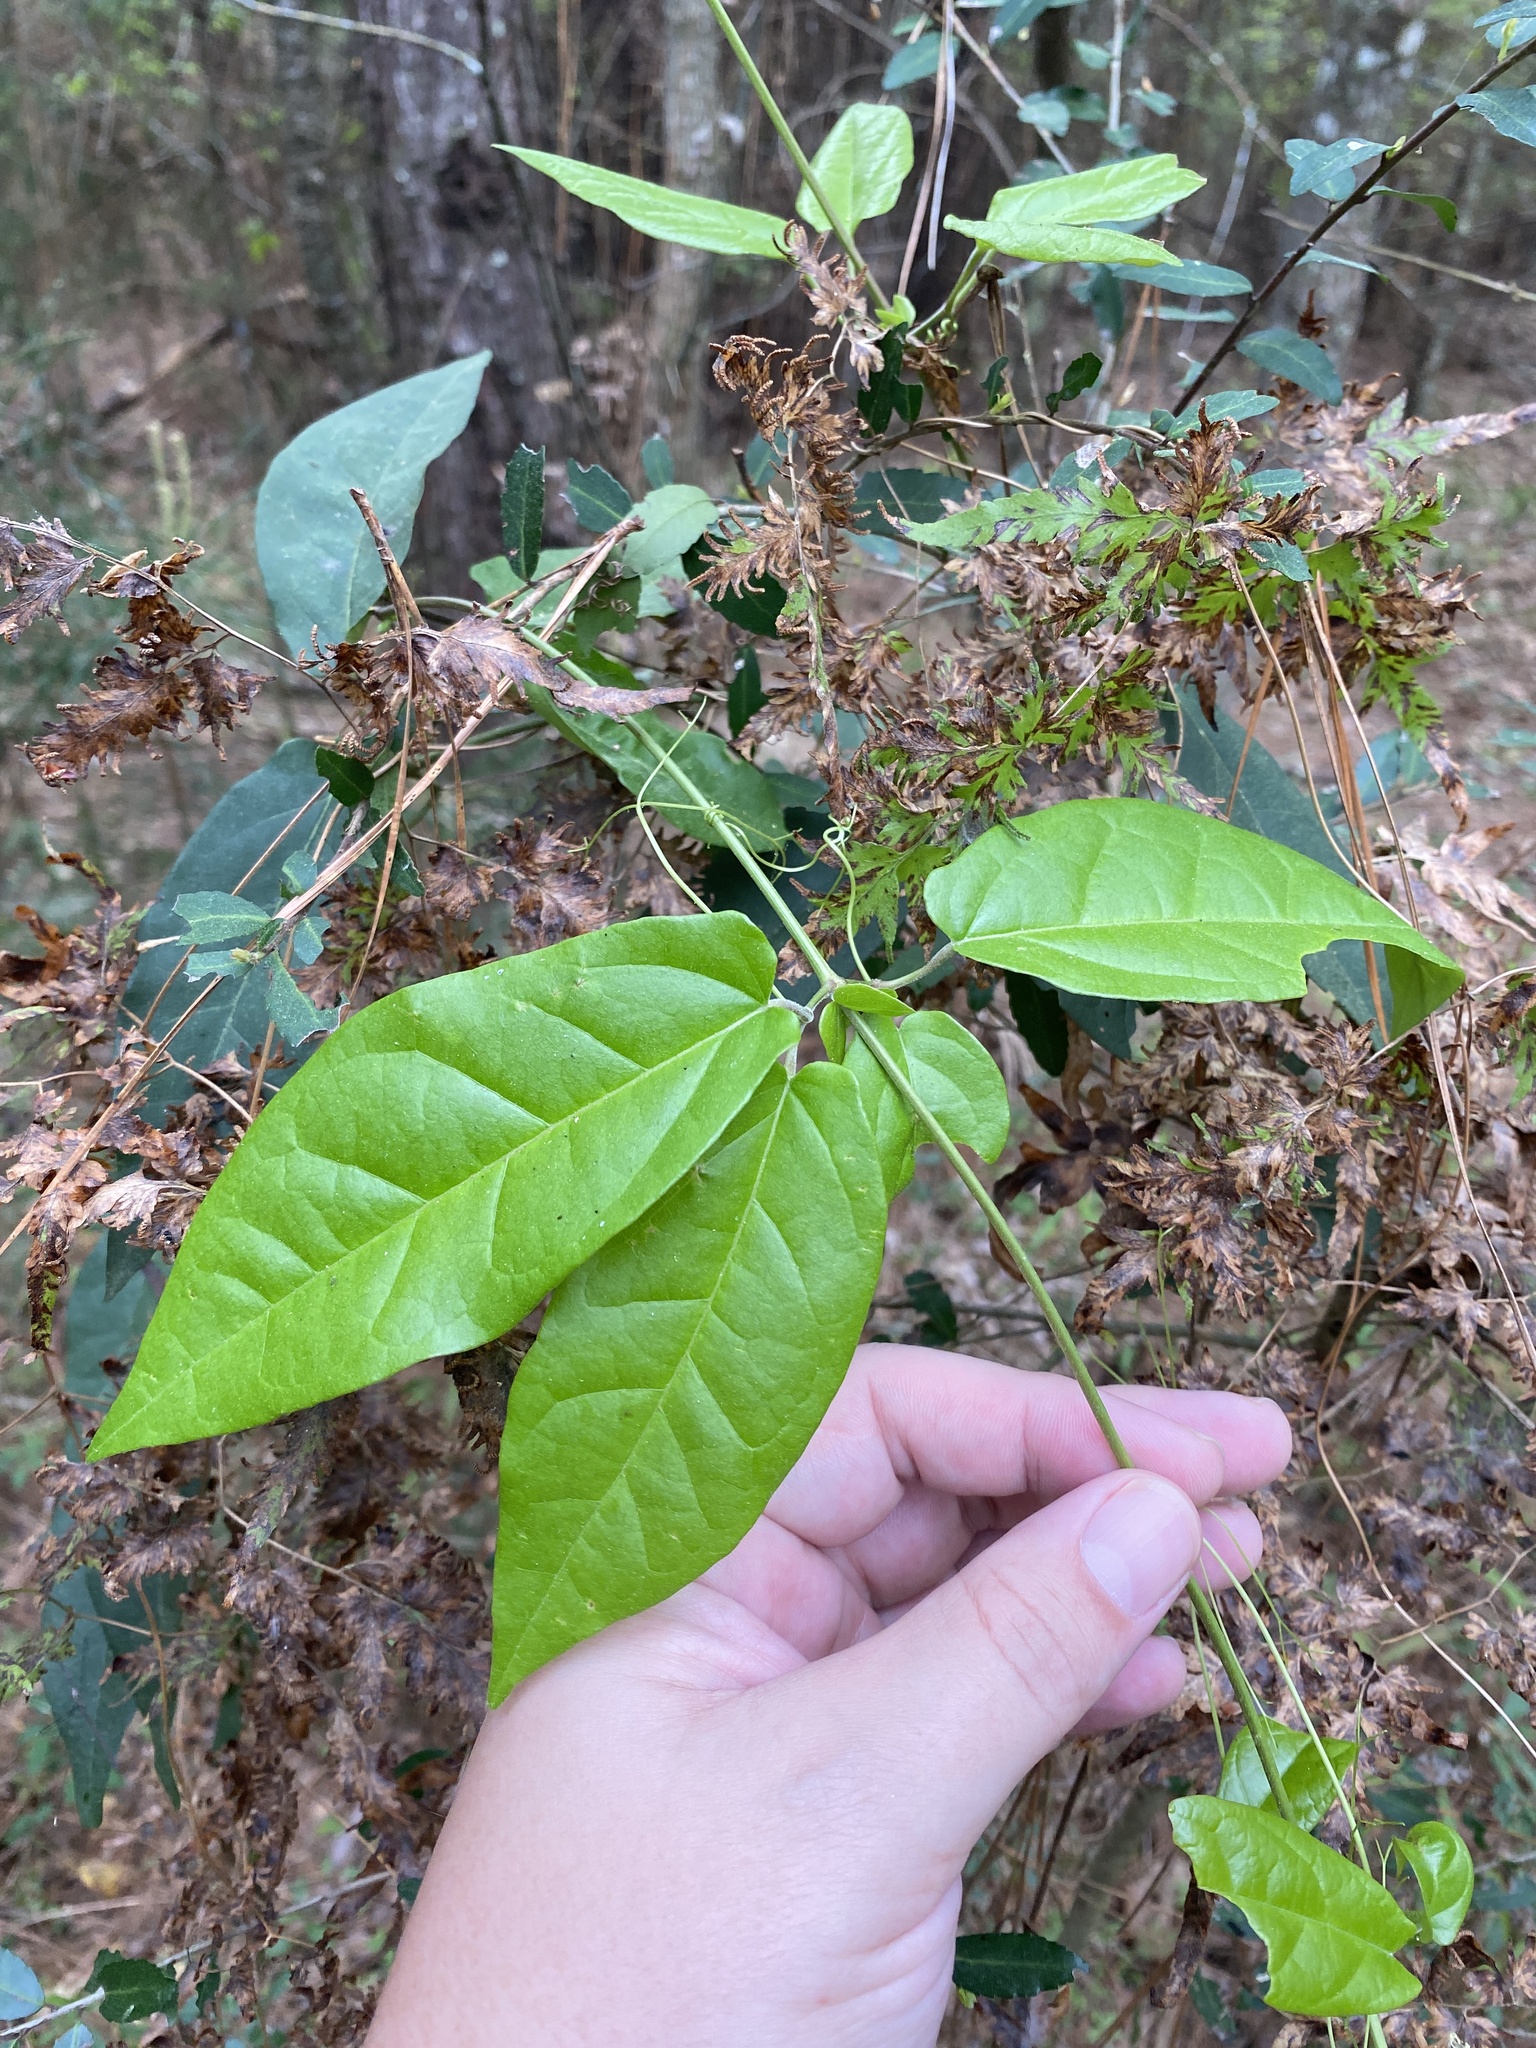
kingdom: Plantae
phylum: Tracheophyta
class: Magnoliopsida
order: Lamiales
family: Bignoniaceae
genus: Bignonia
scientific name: Bignonia capreolata
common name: Crossvine
